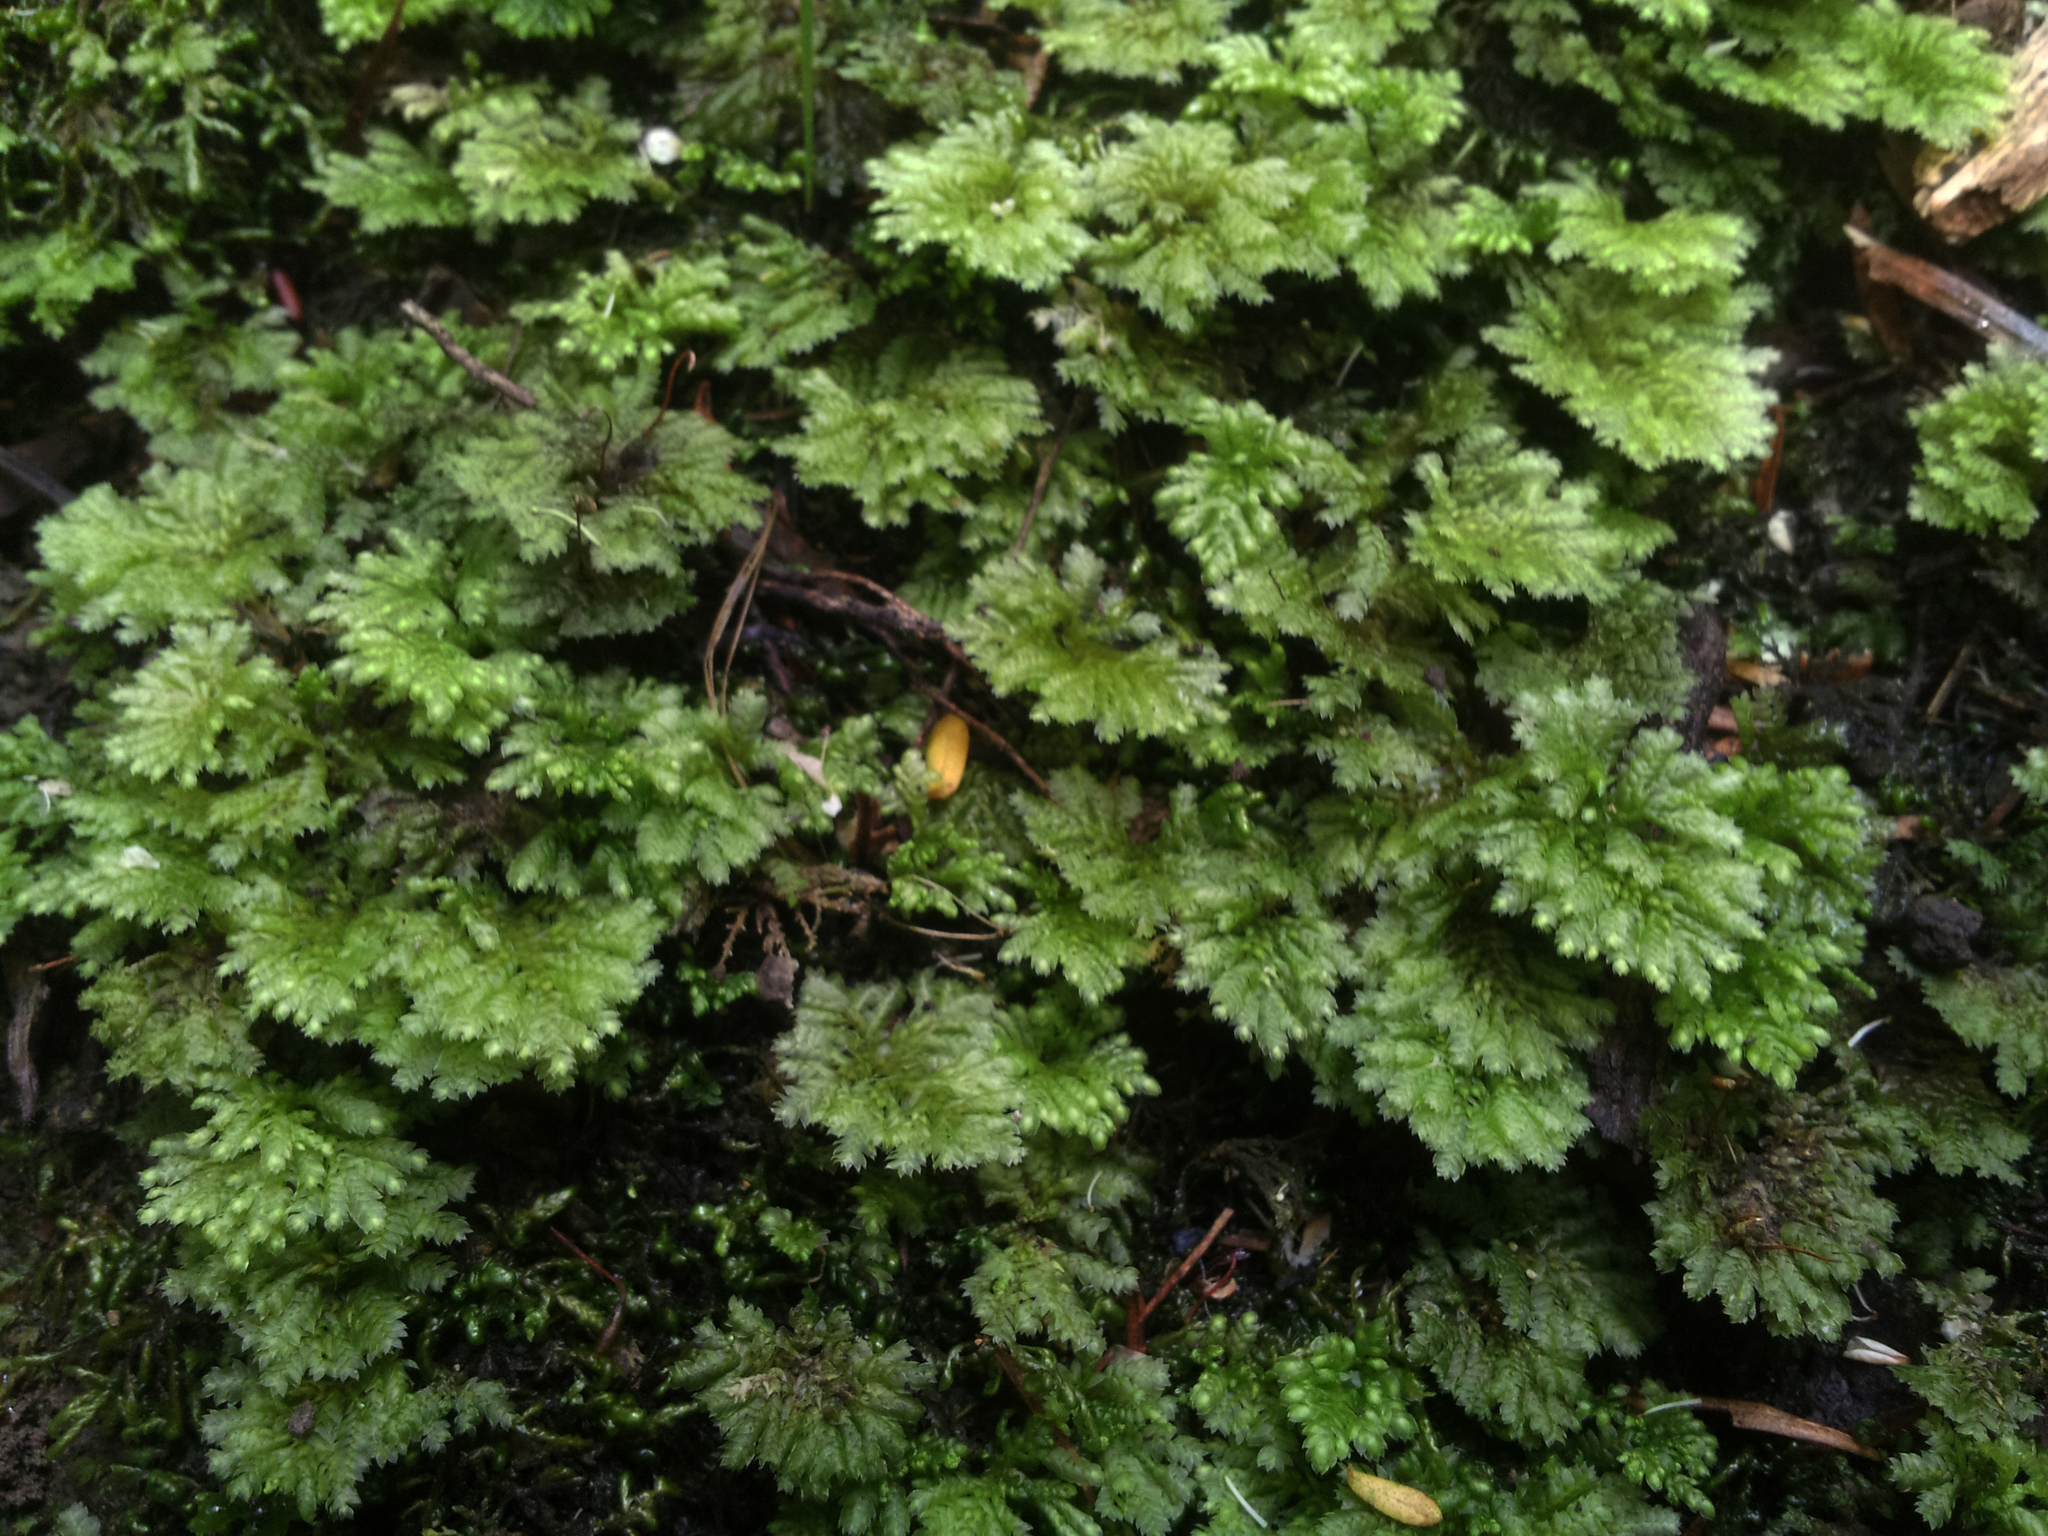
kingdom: Plantae
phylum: Bryophyta
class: Bryopsida
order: Hypopterygiales
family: Hypopterygiaceae
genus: Hypopterygium
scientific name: Hypopterygium didictyon
